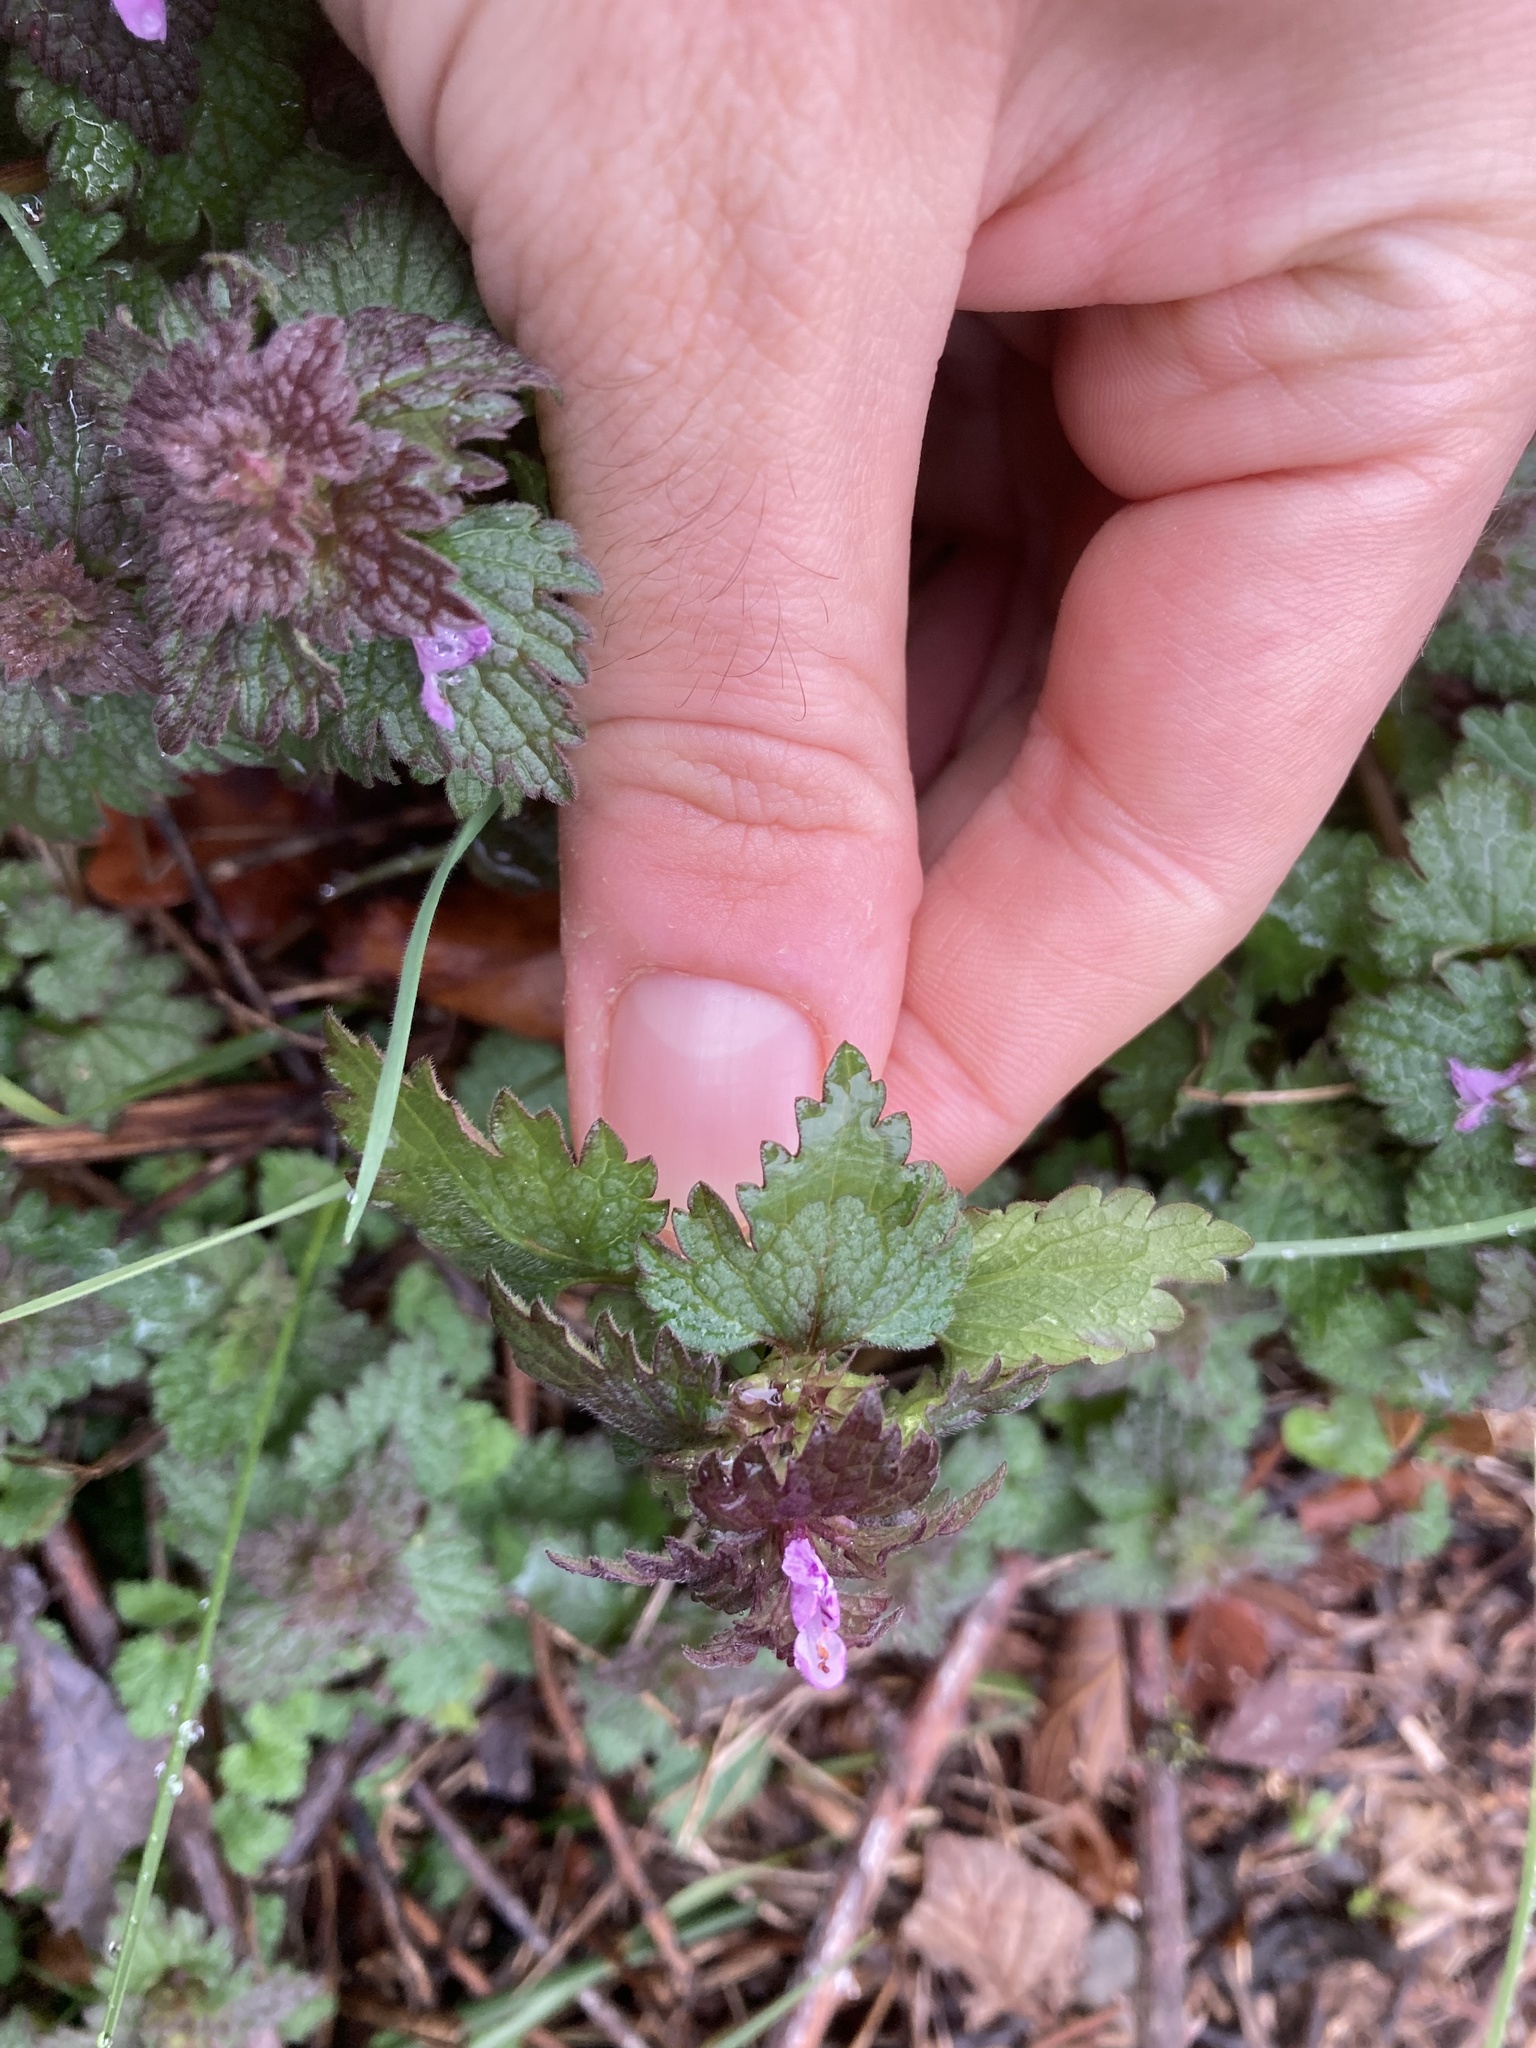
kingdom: Plantae
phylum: Tracheophyta
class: Magnoliopsida
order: Lamiales
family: Lamiaceae
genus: Lamium
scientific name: Lamium hybridum
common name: Cut-leaved dead-nettle
